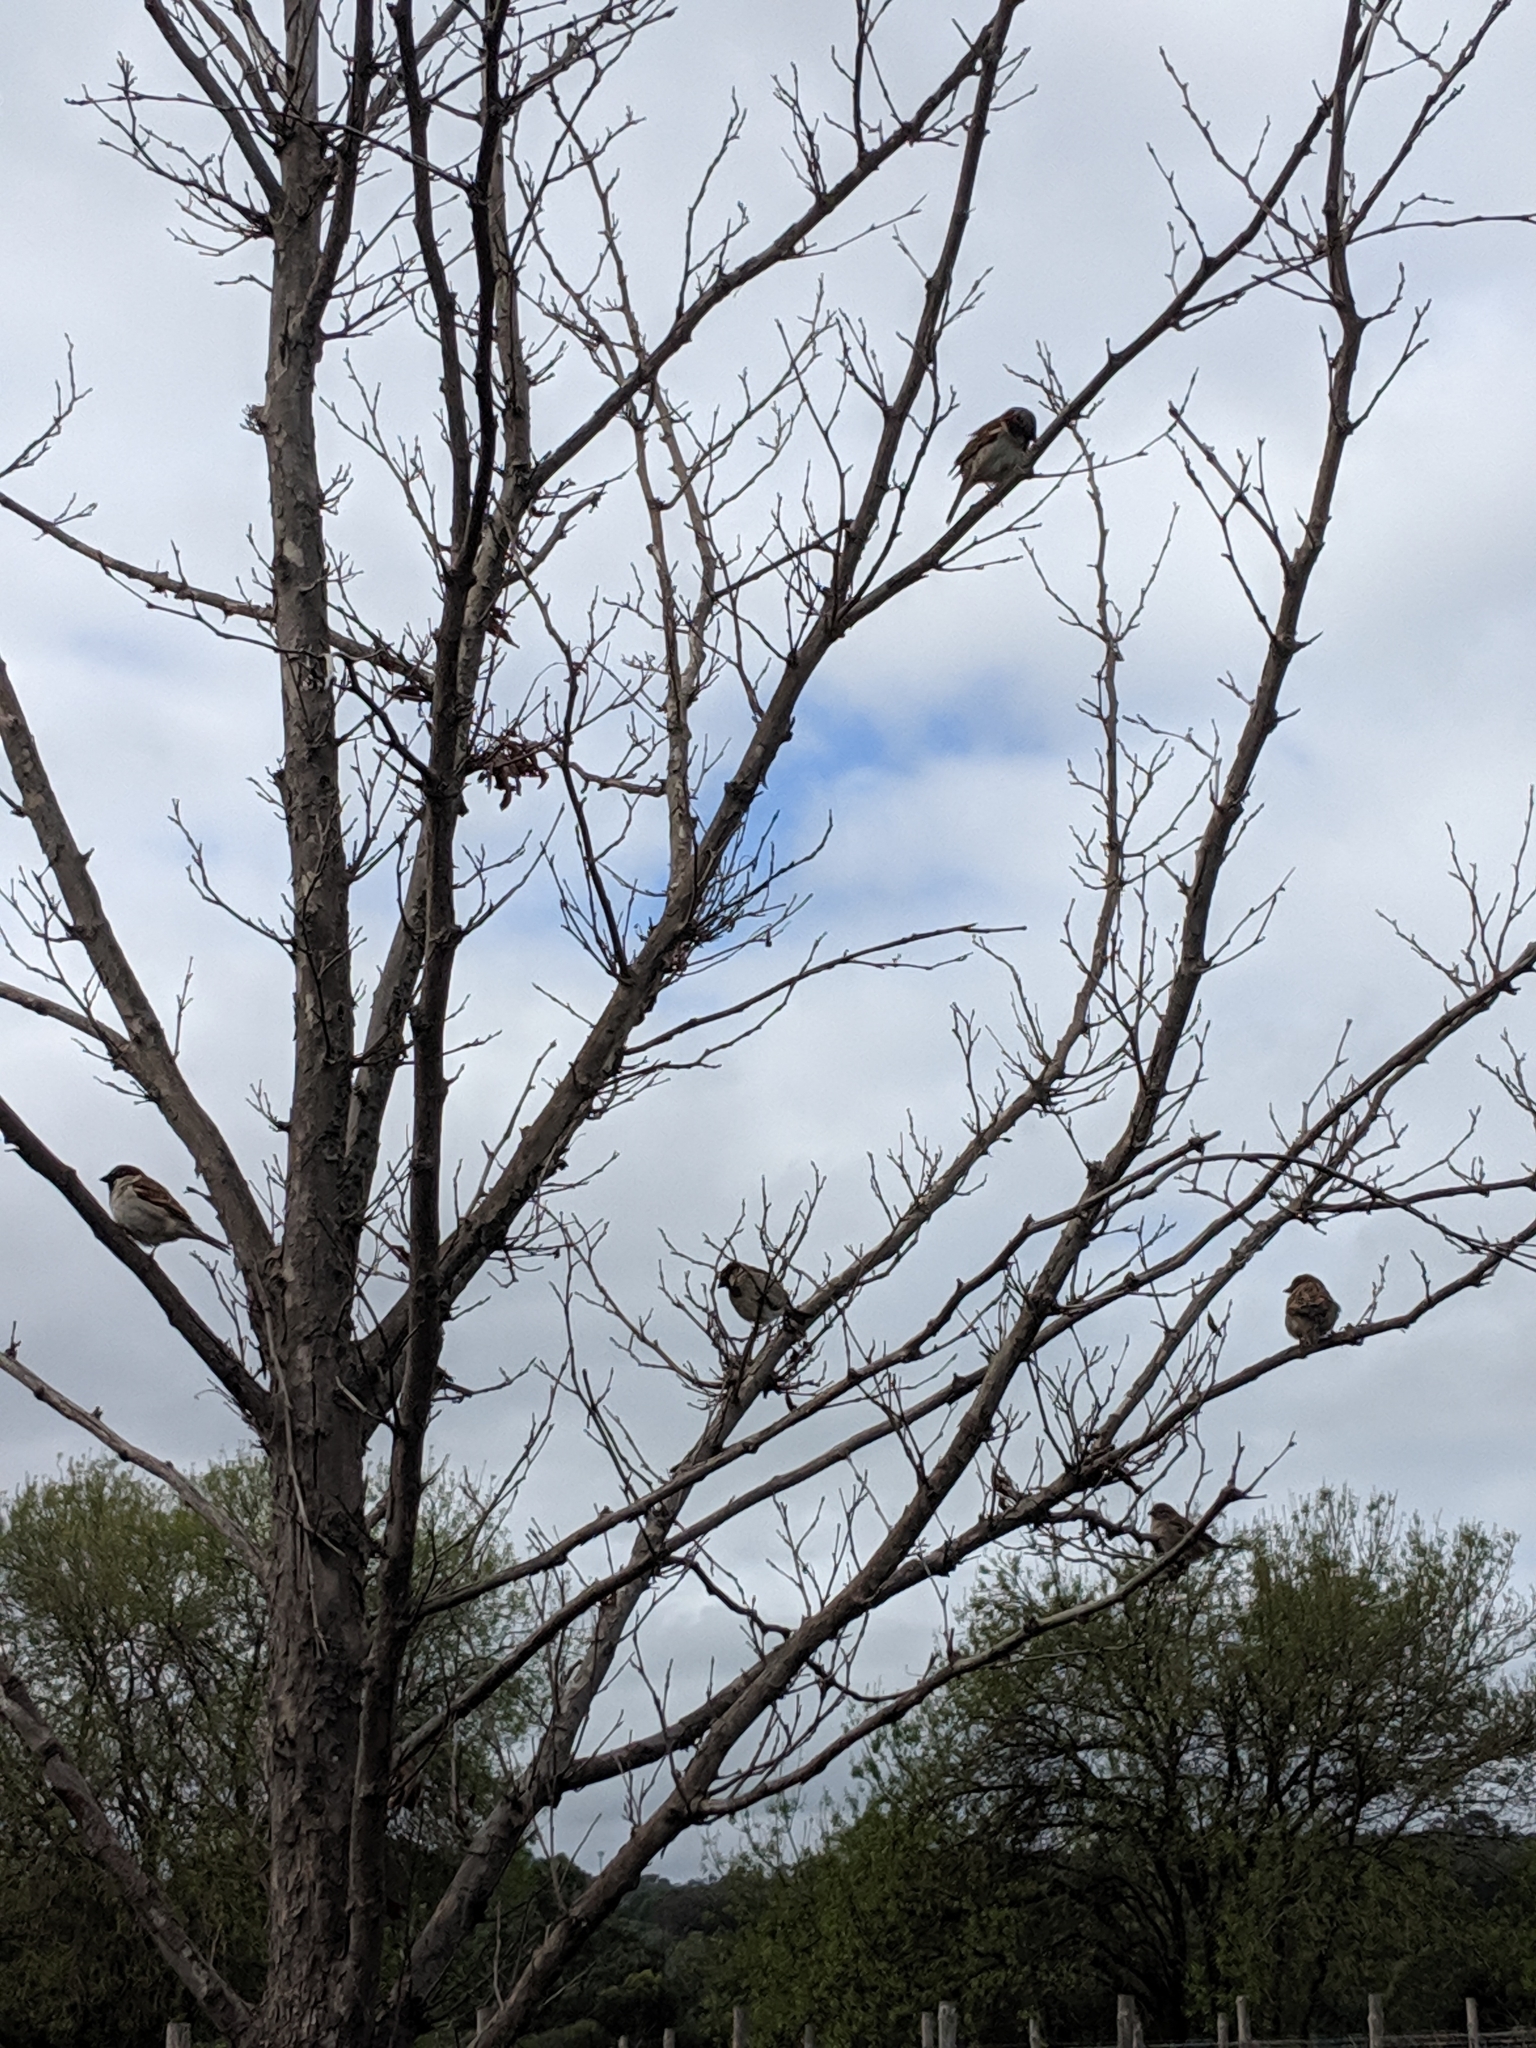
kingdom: Animalia
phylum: Chordata
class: Aves
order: Passeriformes
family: Passeridae
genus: Passer
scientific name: Passer domesticus
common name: House sparrow
